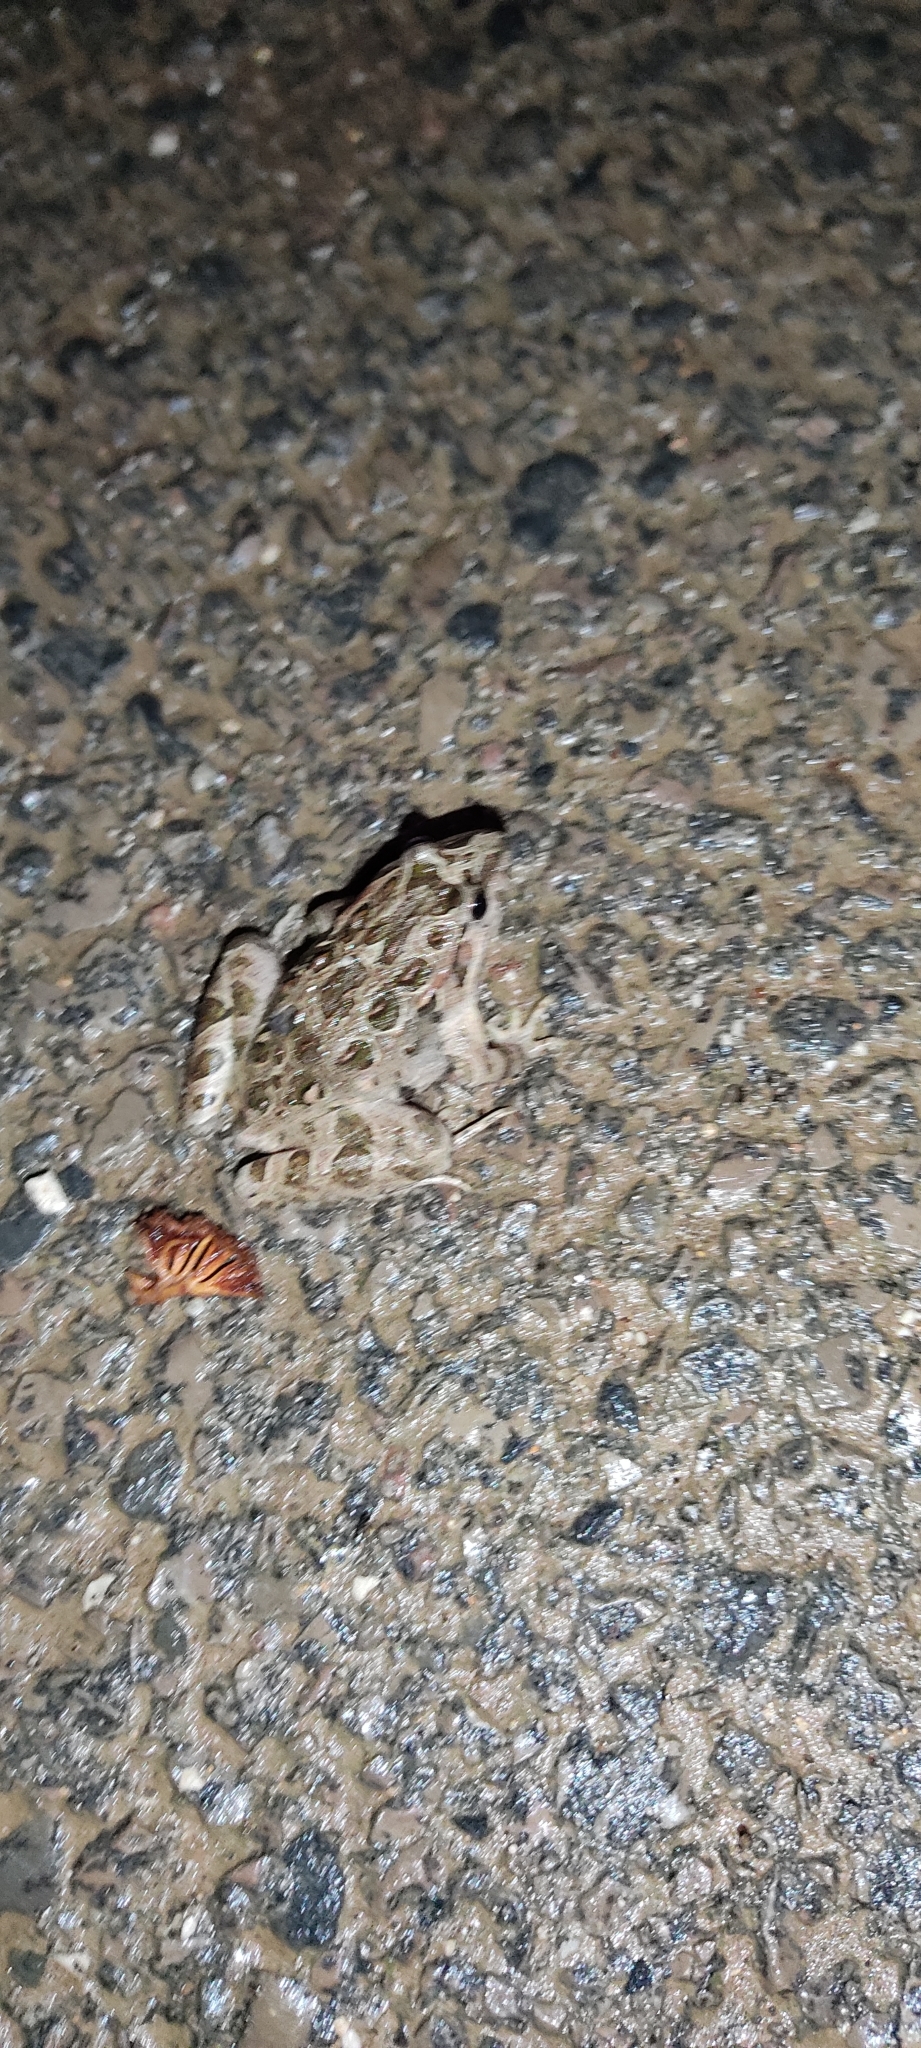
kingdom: Animalia
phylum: Chordata
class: Amphibia
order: Anura
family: Alytidae
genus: Discoglossus
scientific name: Discoglossus pictus
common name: Painted frog
